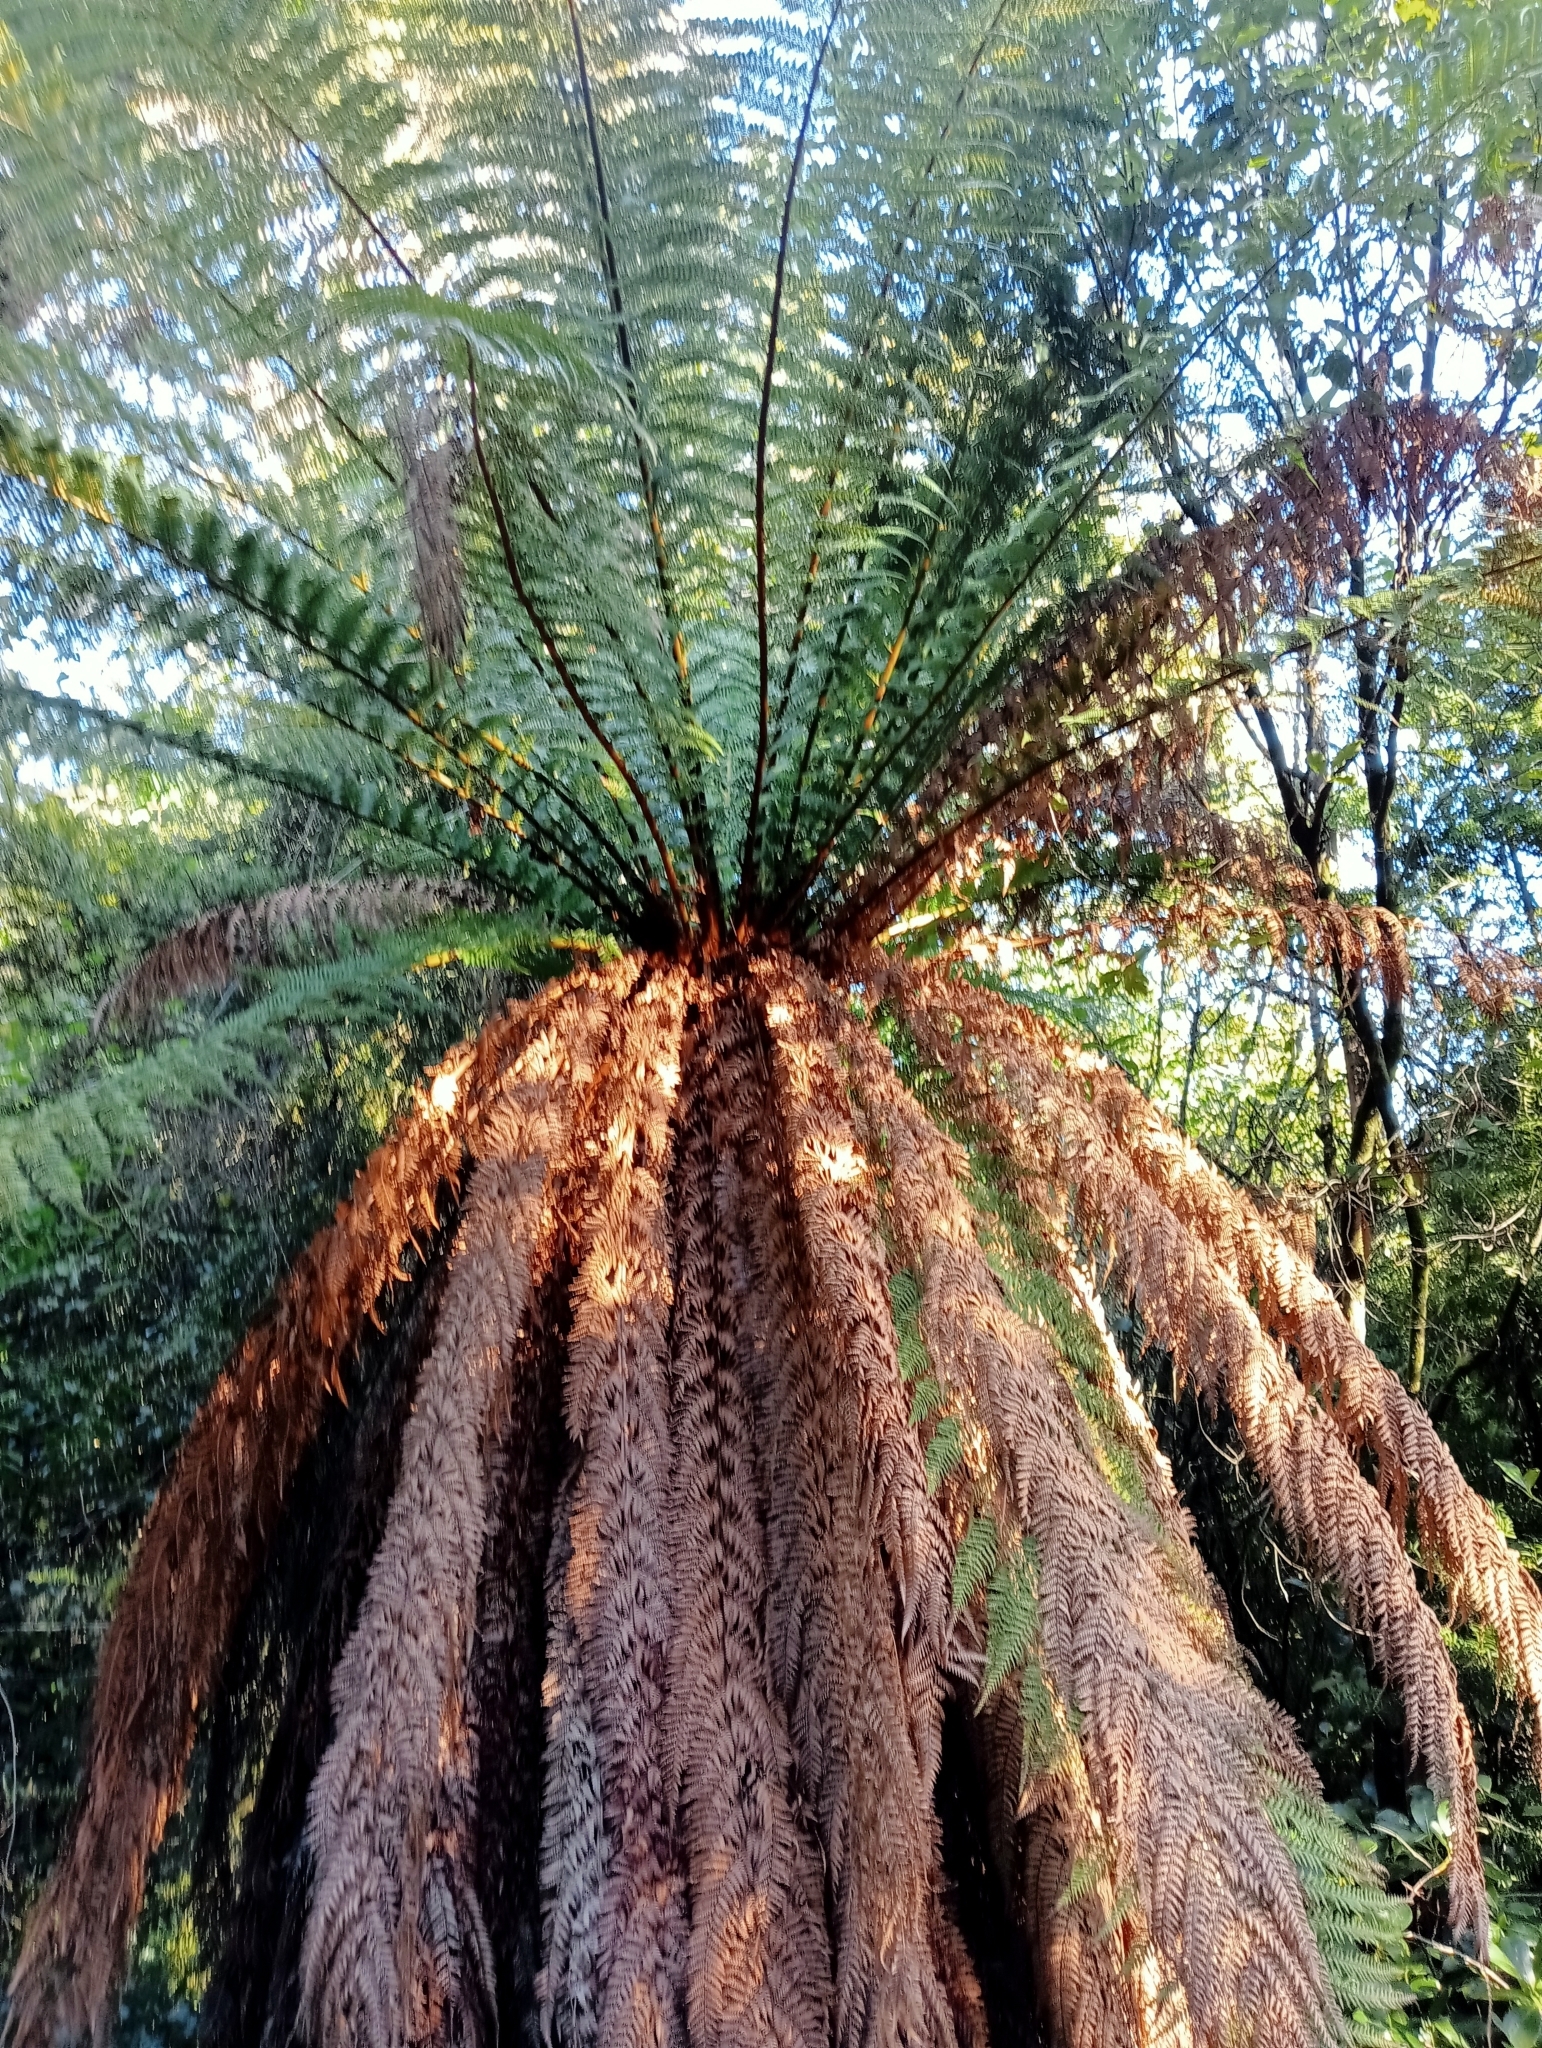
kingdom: Plantae
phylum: Tracheophyta
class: Polypodiopsida
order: Cyatheales
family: Dicksoniaceae
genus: Dicksonia
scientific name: Dicksonia fibrosa
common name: Golden tree fern
